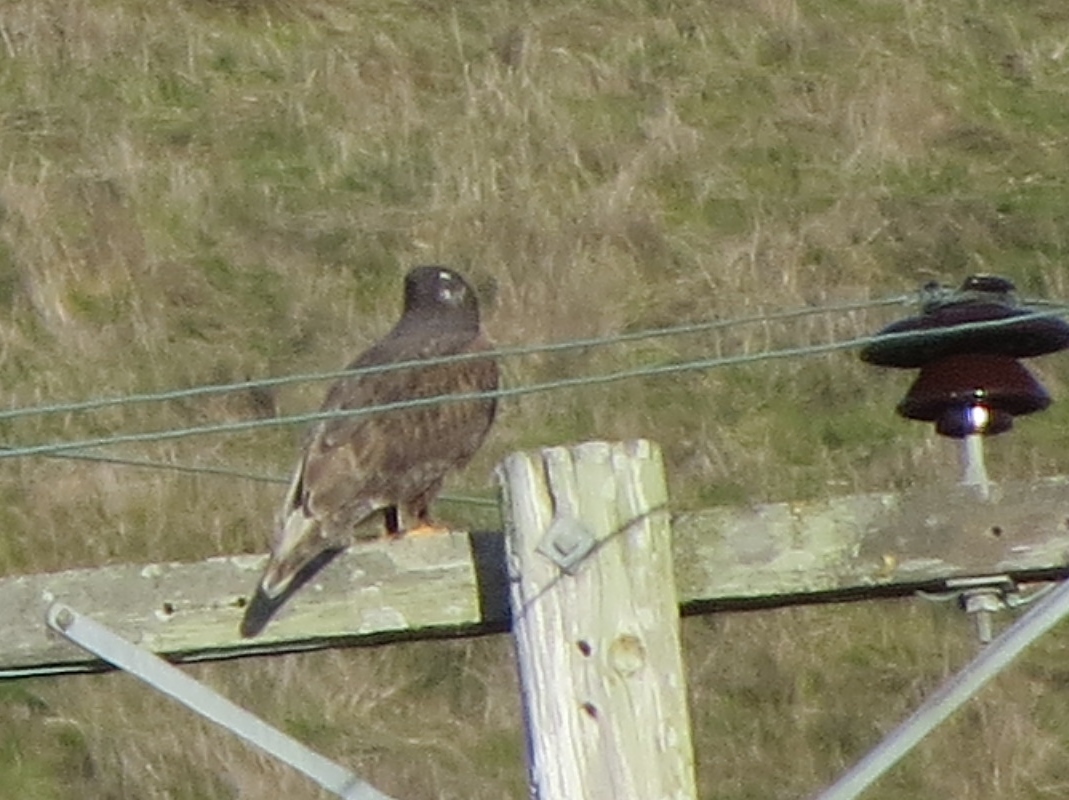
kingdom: Animalia
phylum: Chordata
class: Aves
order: Accipitriformes
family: Accipitridae
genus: Buteo
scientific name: Buteo regalis
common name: Ferruginous hawk
